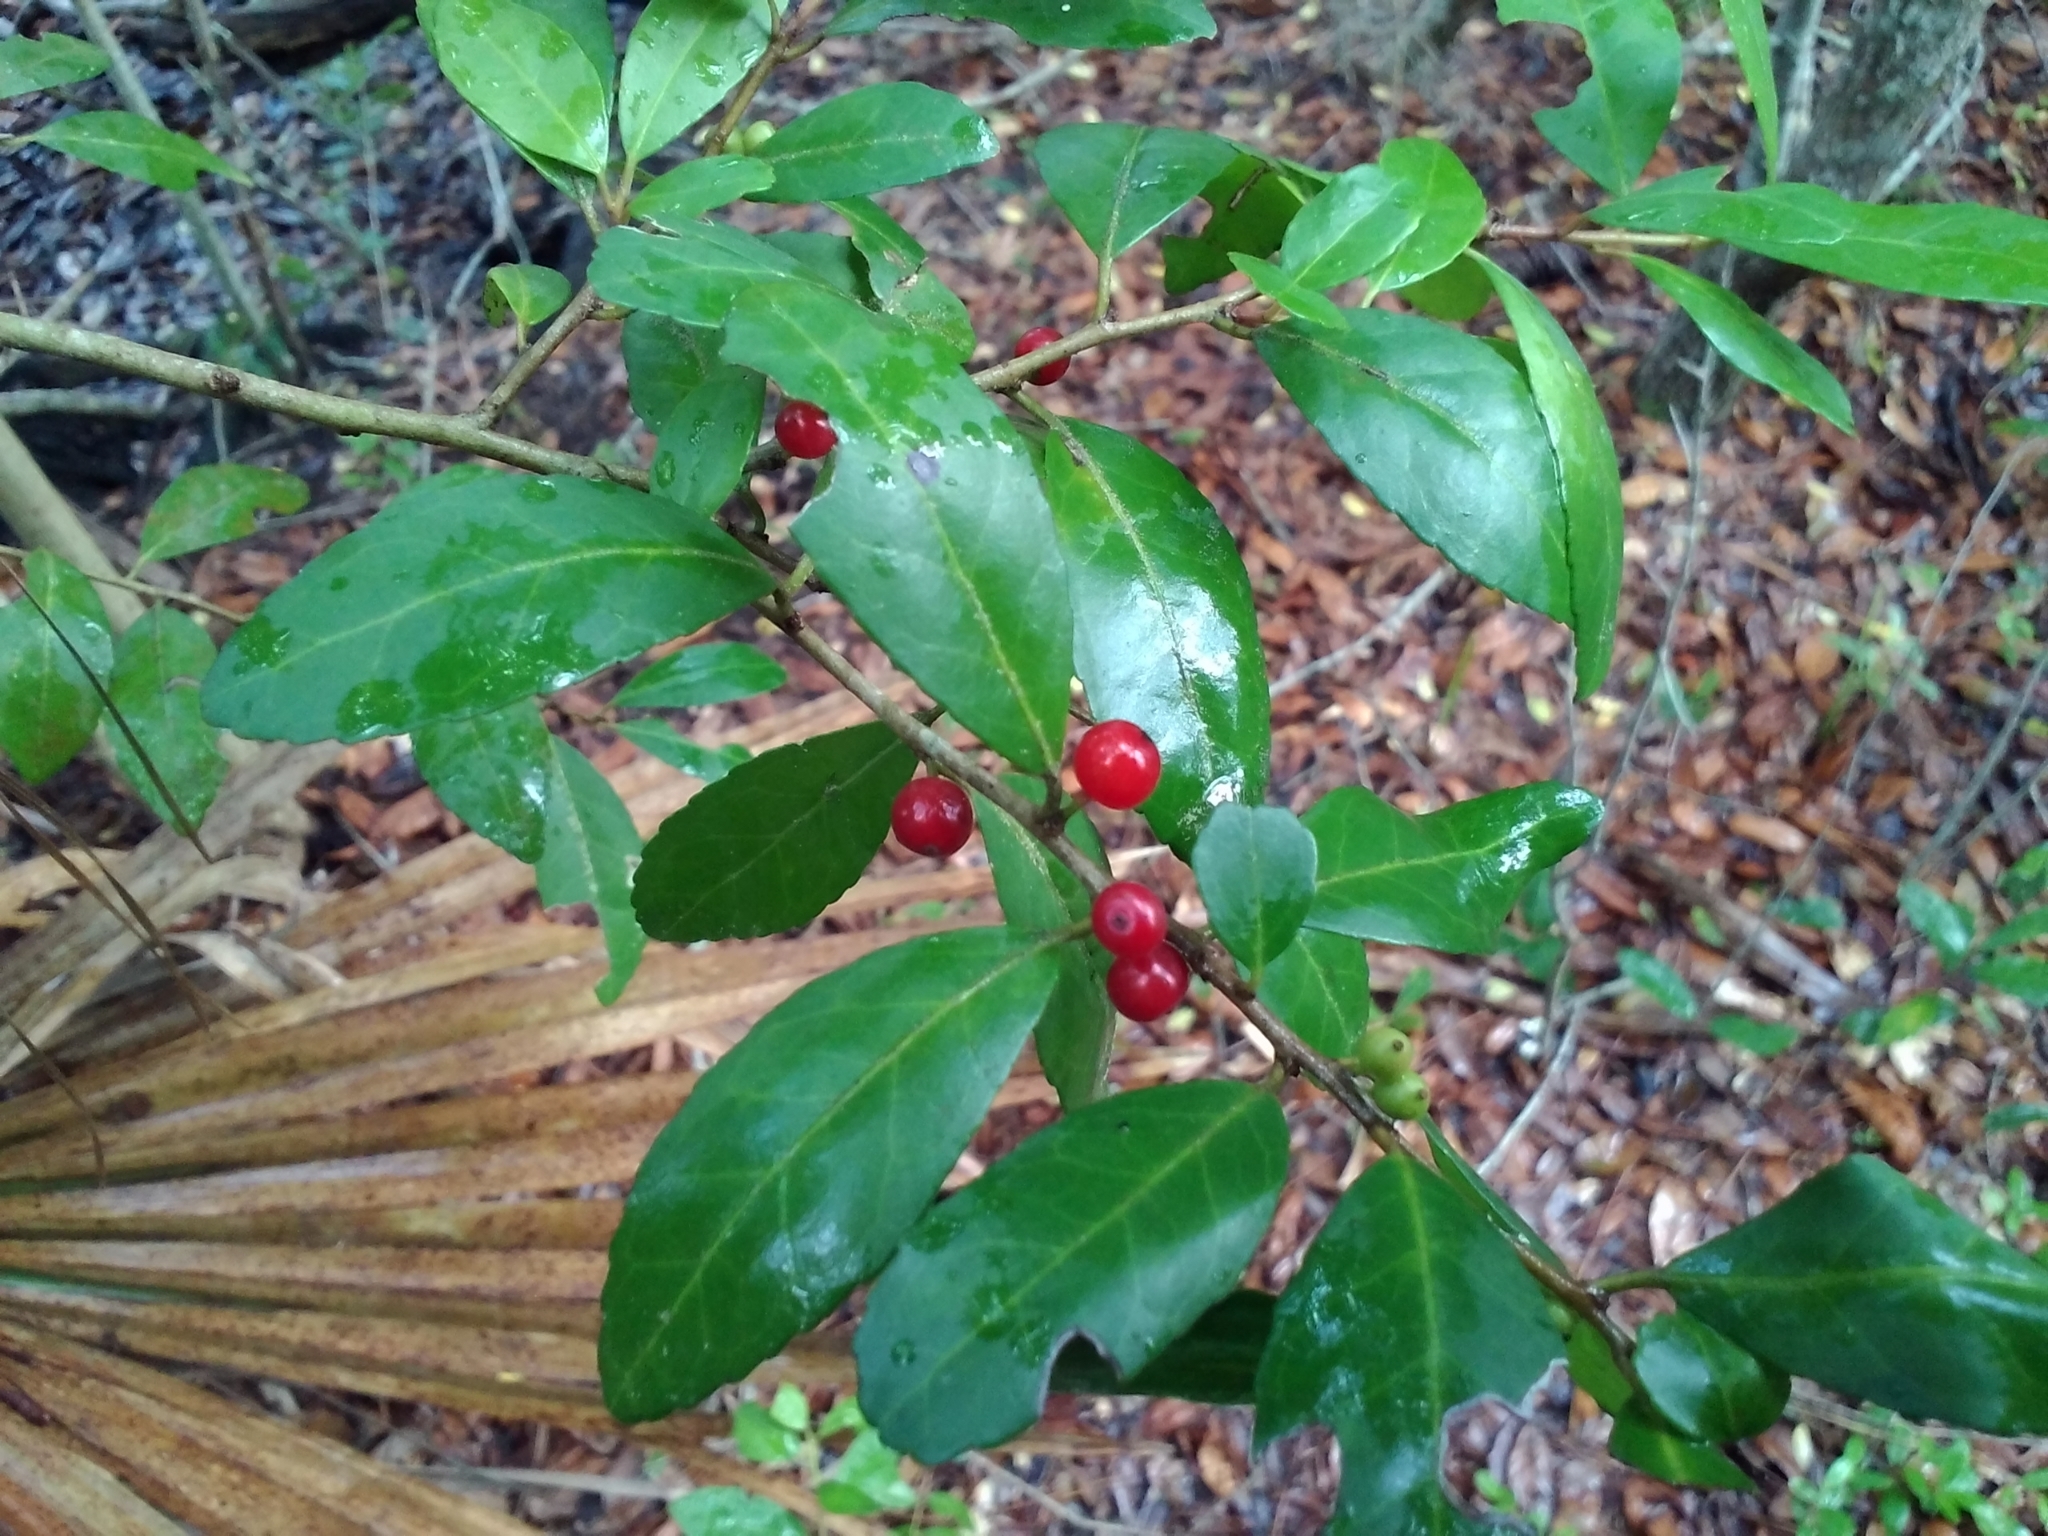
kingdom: Plantae
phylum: Tracheophyta
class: Magnoliopsida
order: Aquifoliales
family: Aquifoliaceae
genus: Ilex
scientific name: Ilex vomitoria
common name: Yaupon holly
